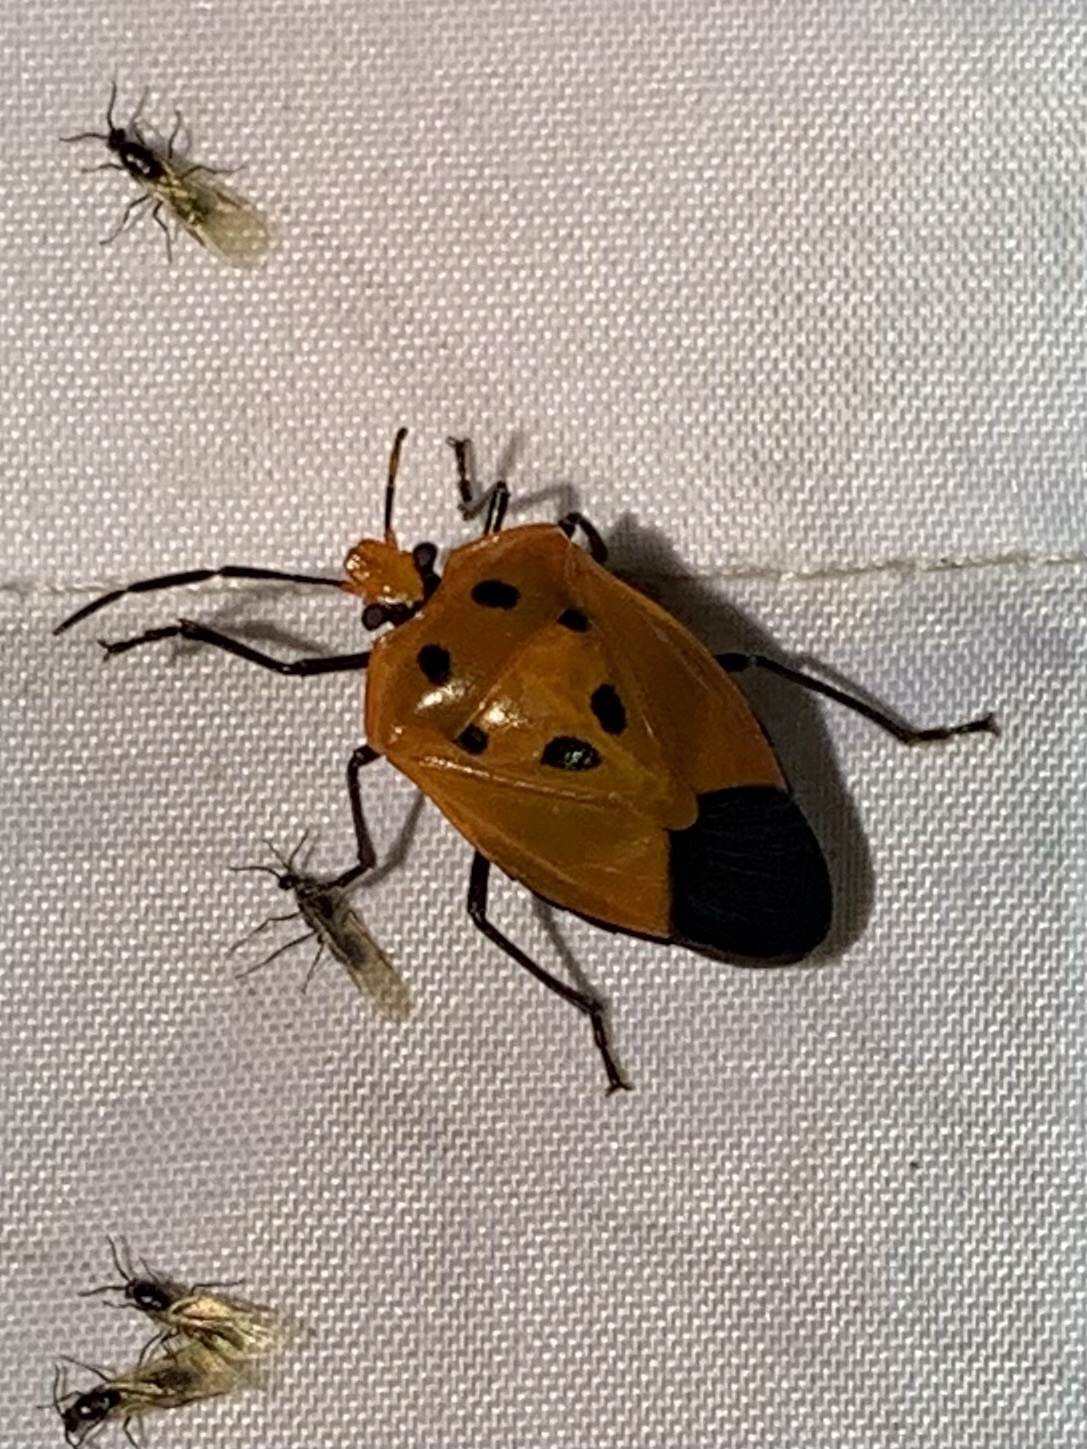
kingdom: Animalia
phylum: Arthropoda
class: Insecta
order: Hemiptera
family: Pentatomidae
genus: Arocera
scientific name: Arocera
